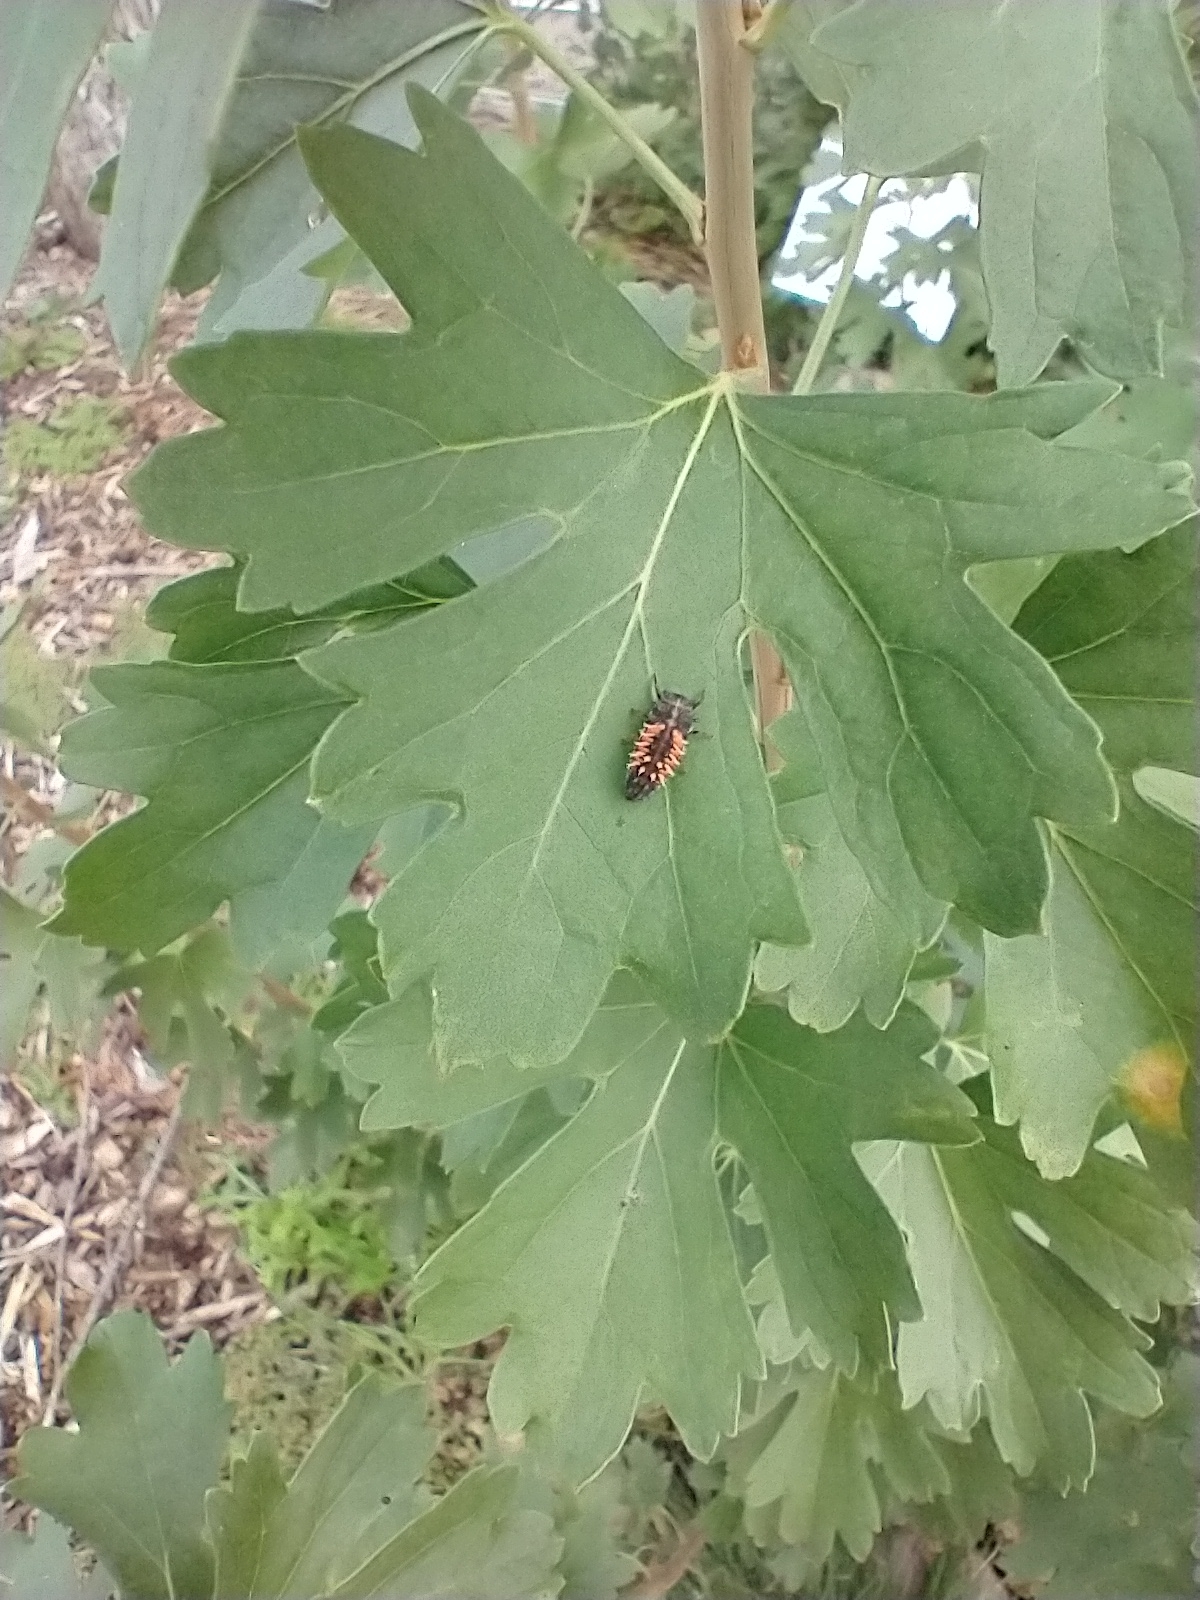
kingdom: Animalia
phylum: Arthropoda
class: Insecta
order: Coleoptera
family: Coccinellidae
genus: Harmonia
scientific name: Harmonia axyridis
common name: Harlequin ladybird
